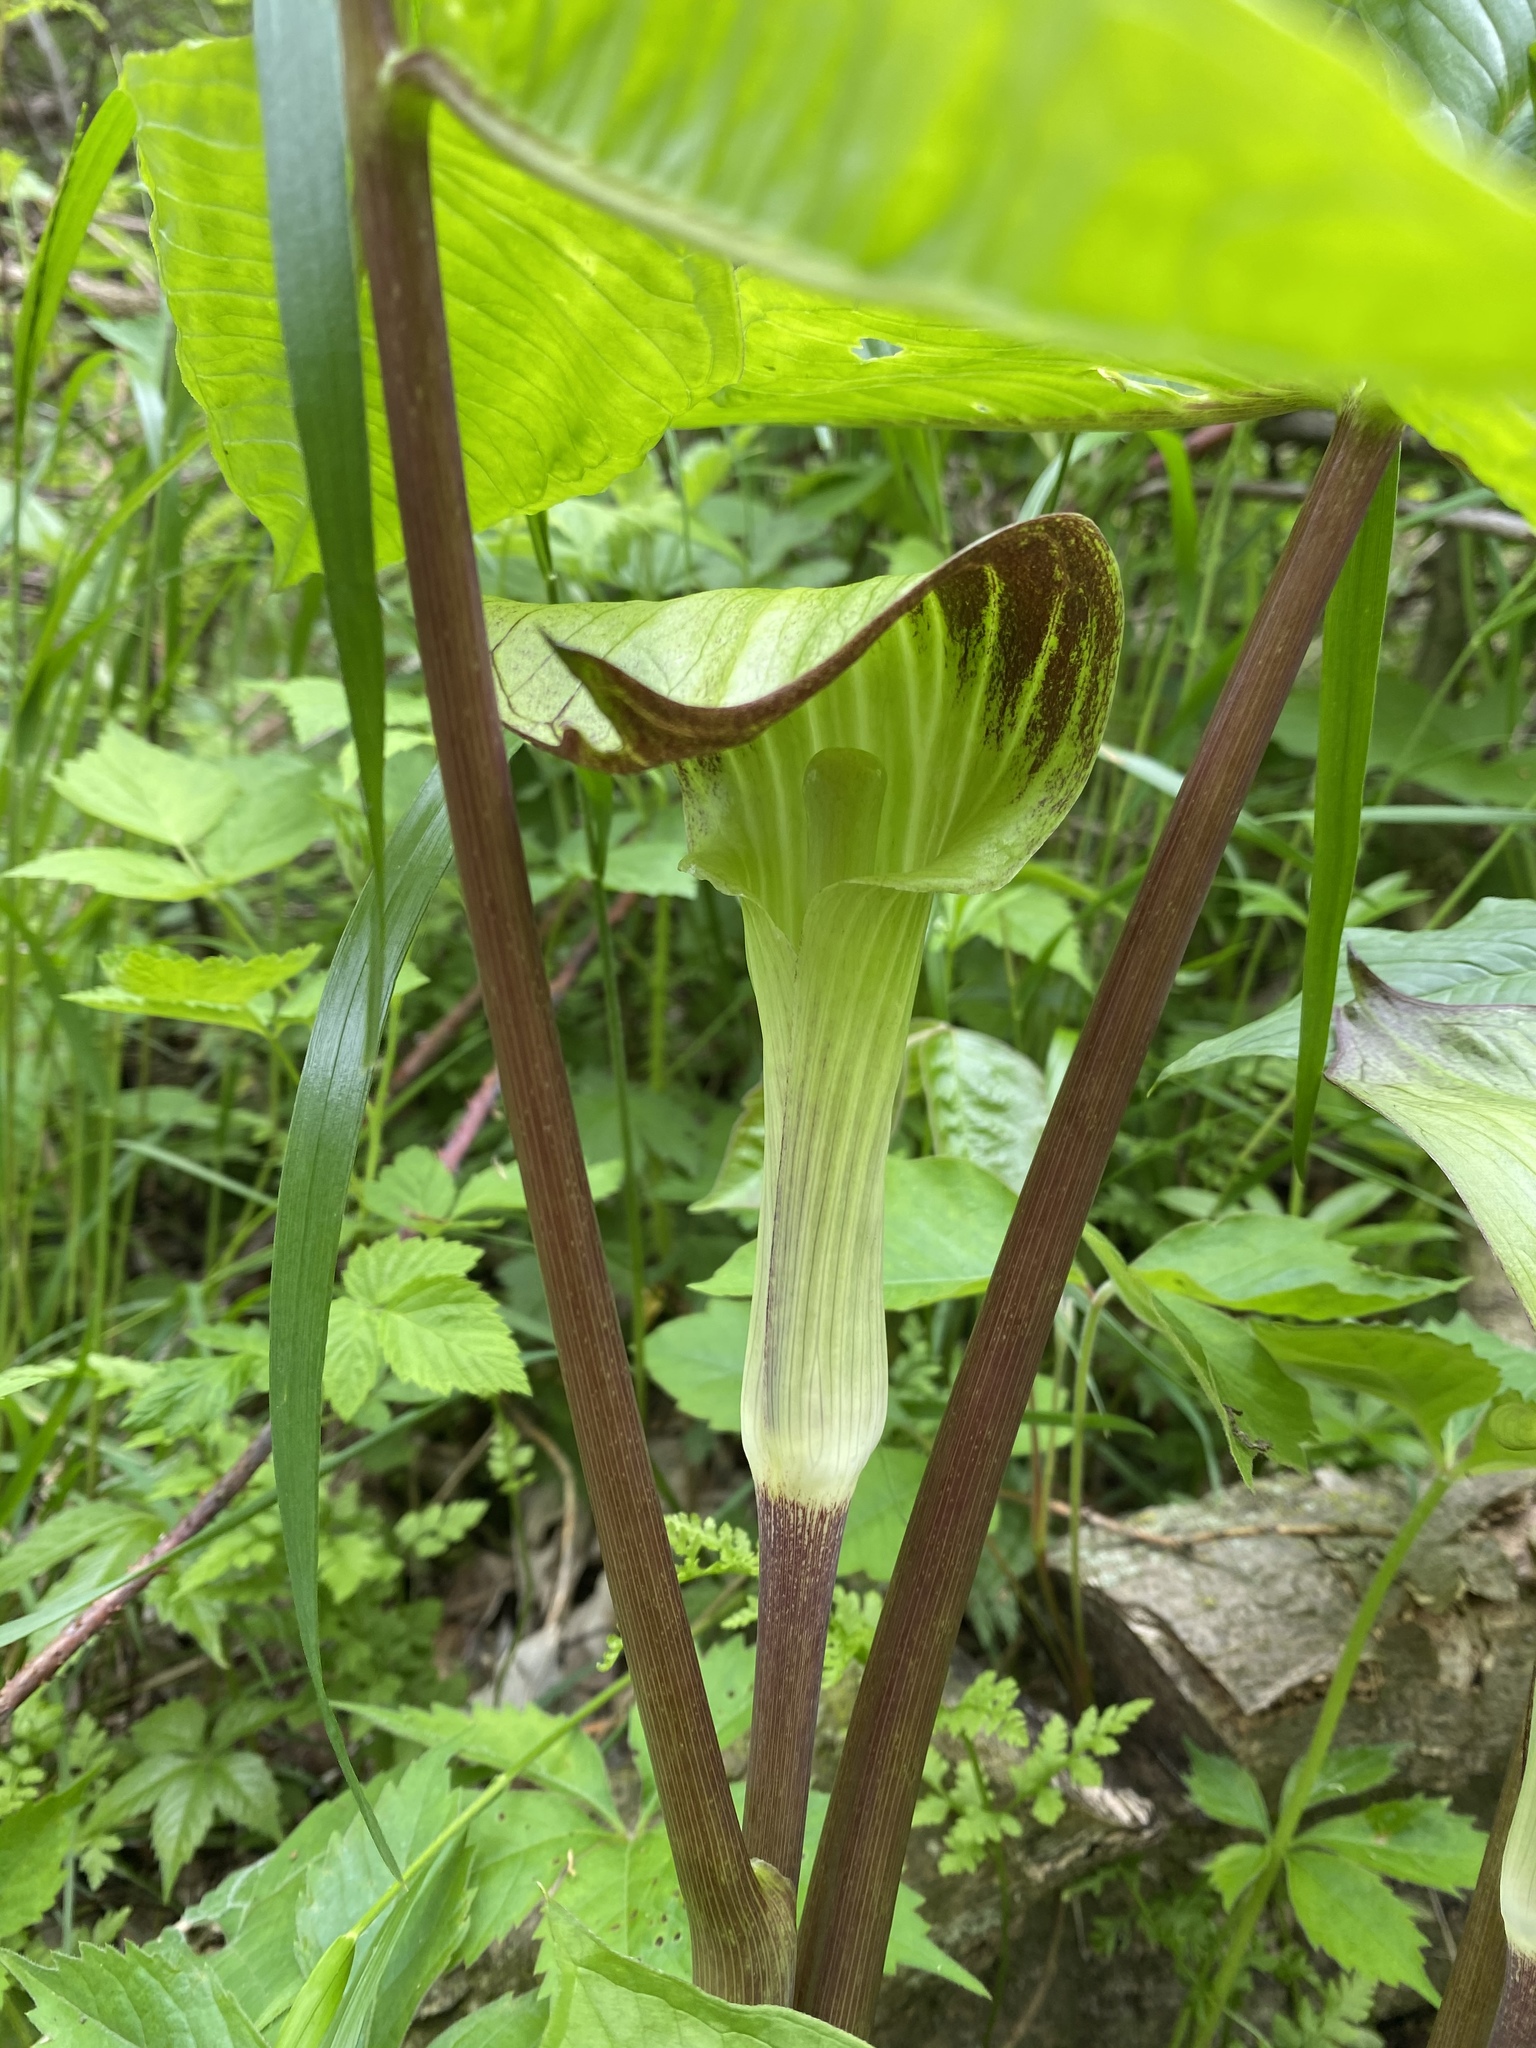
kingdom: Plantae
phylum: Tracheophyta
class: Liliopsida
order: Alismatales
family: Araceae
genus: Arisaema
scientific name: Arisaema triphyllum
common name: Jack-in-the-pulpit
